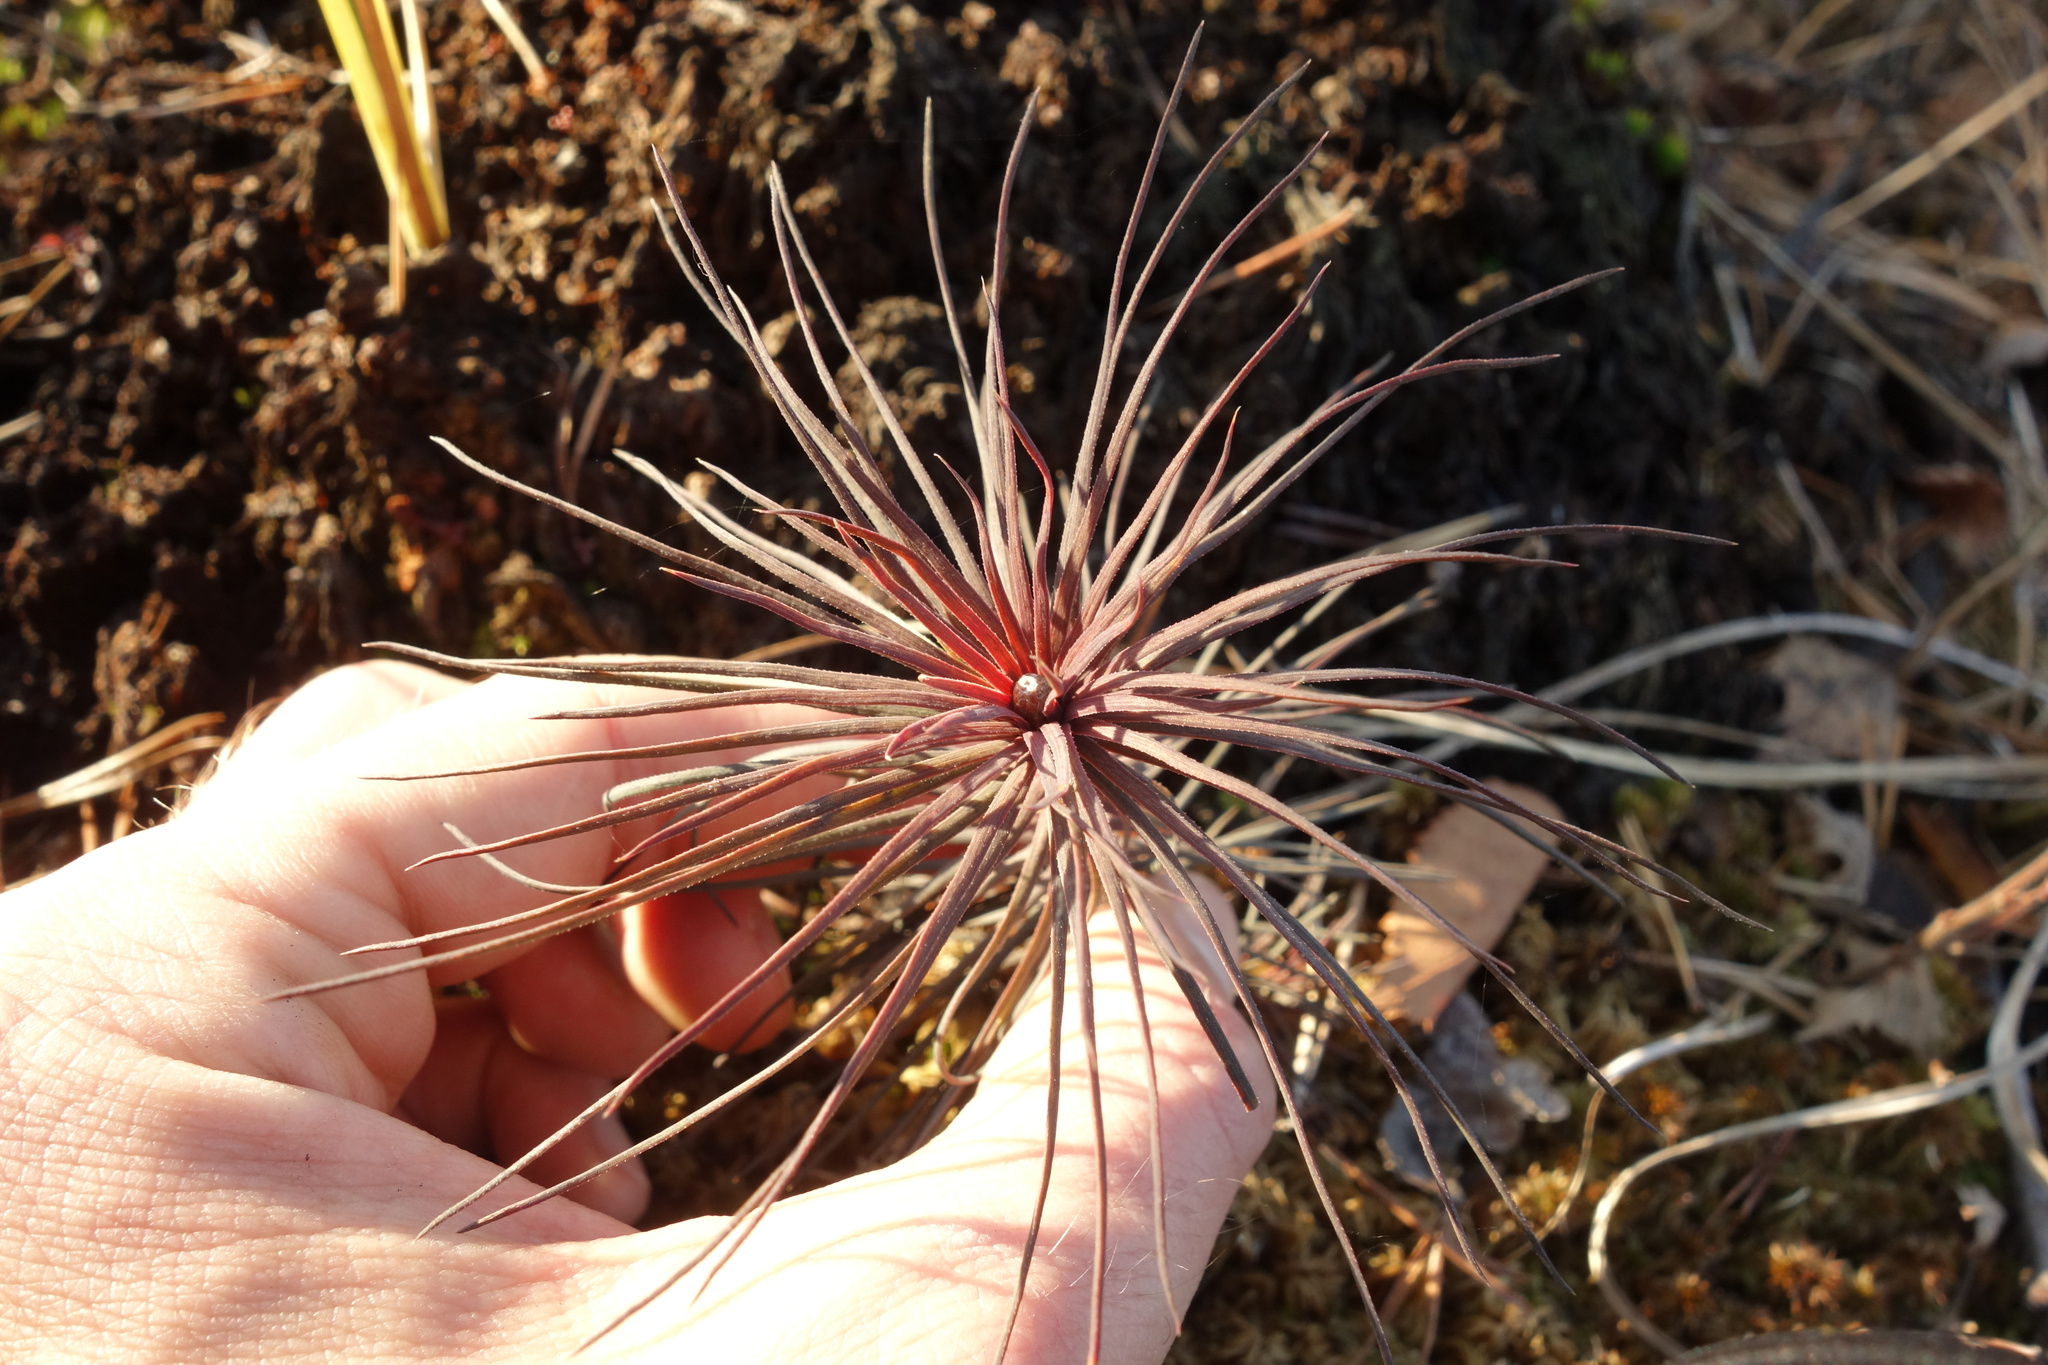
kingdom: Plantae
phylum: Tracheophyta
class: Pinopsida
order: Pinales
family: Pinaceae
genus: Pinus
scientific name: Pinus sylvestris
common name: Scots pine
